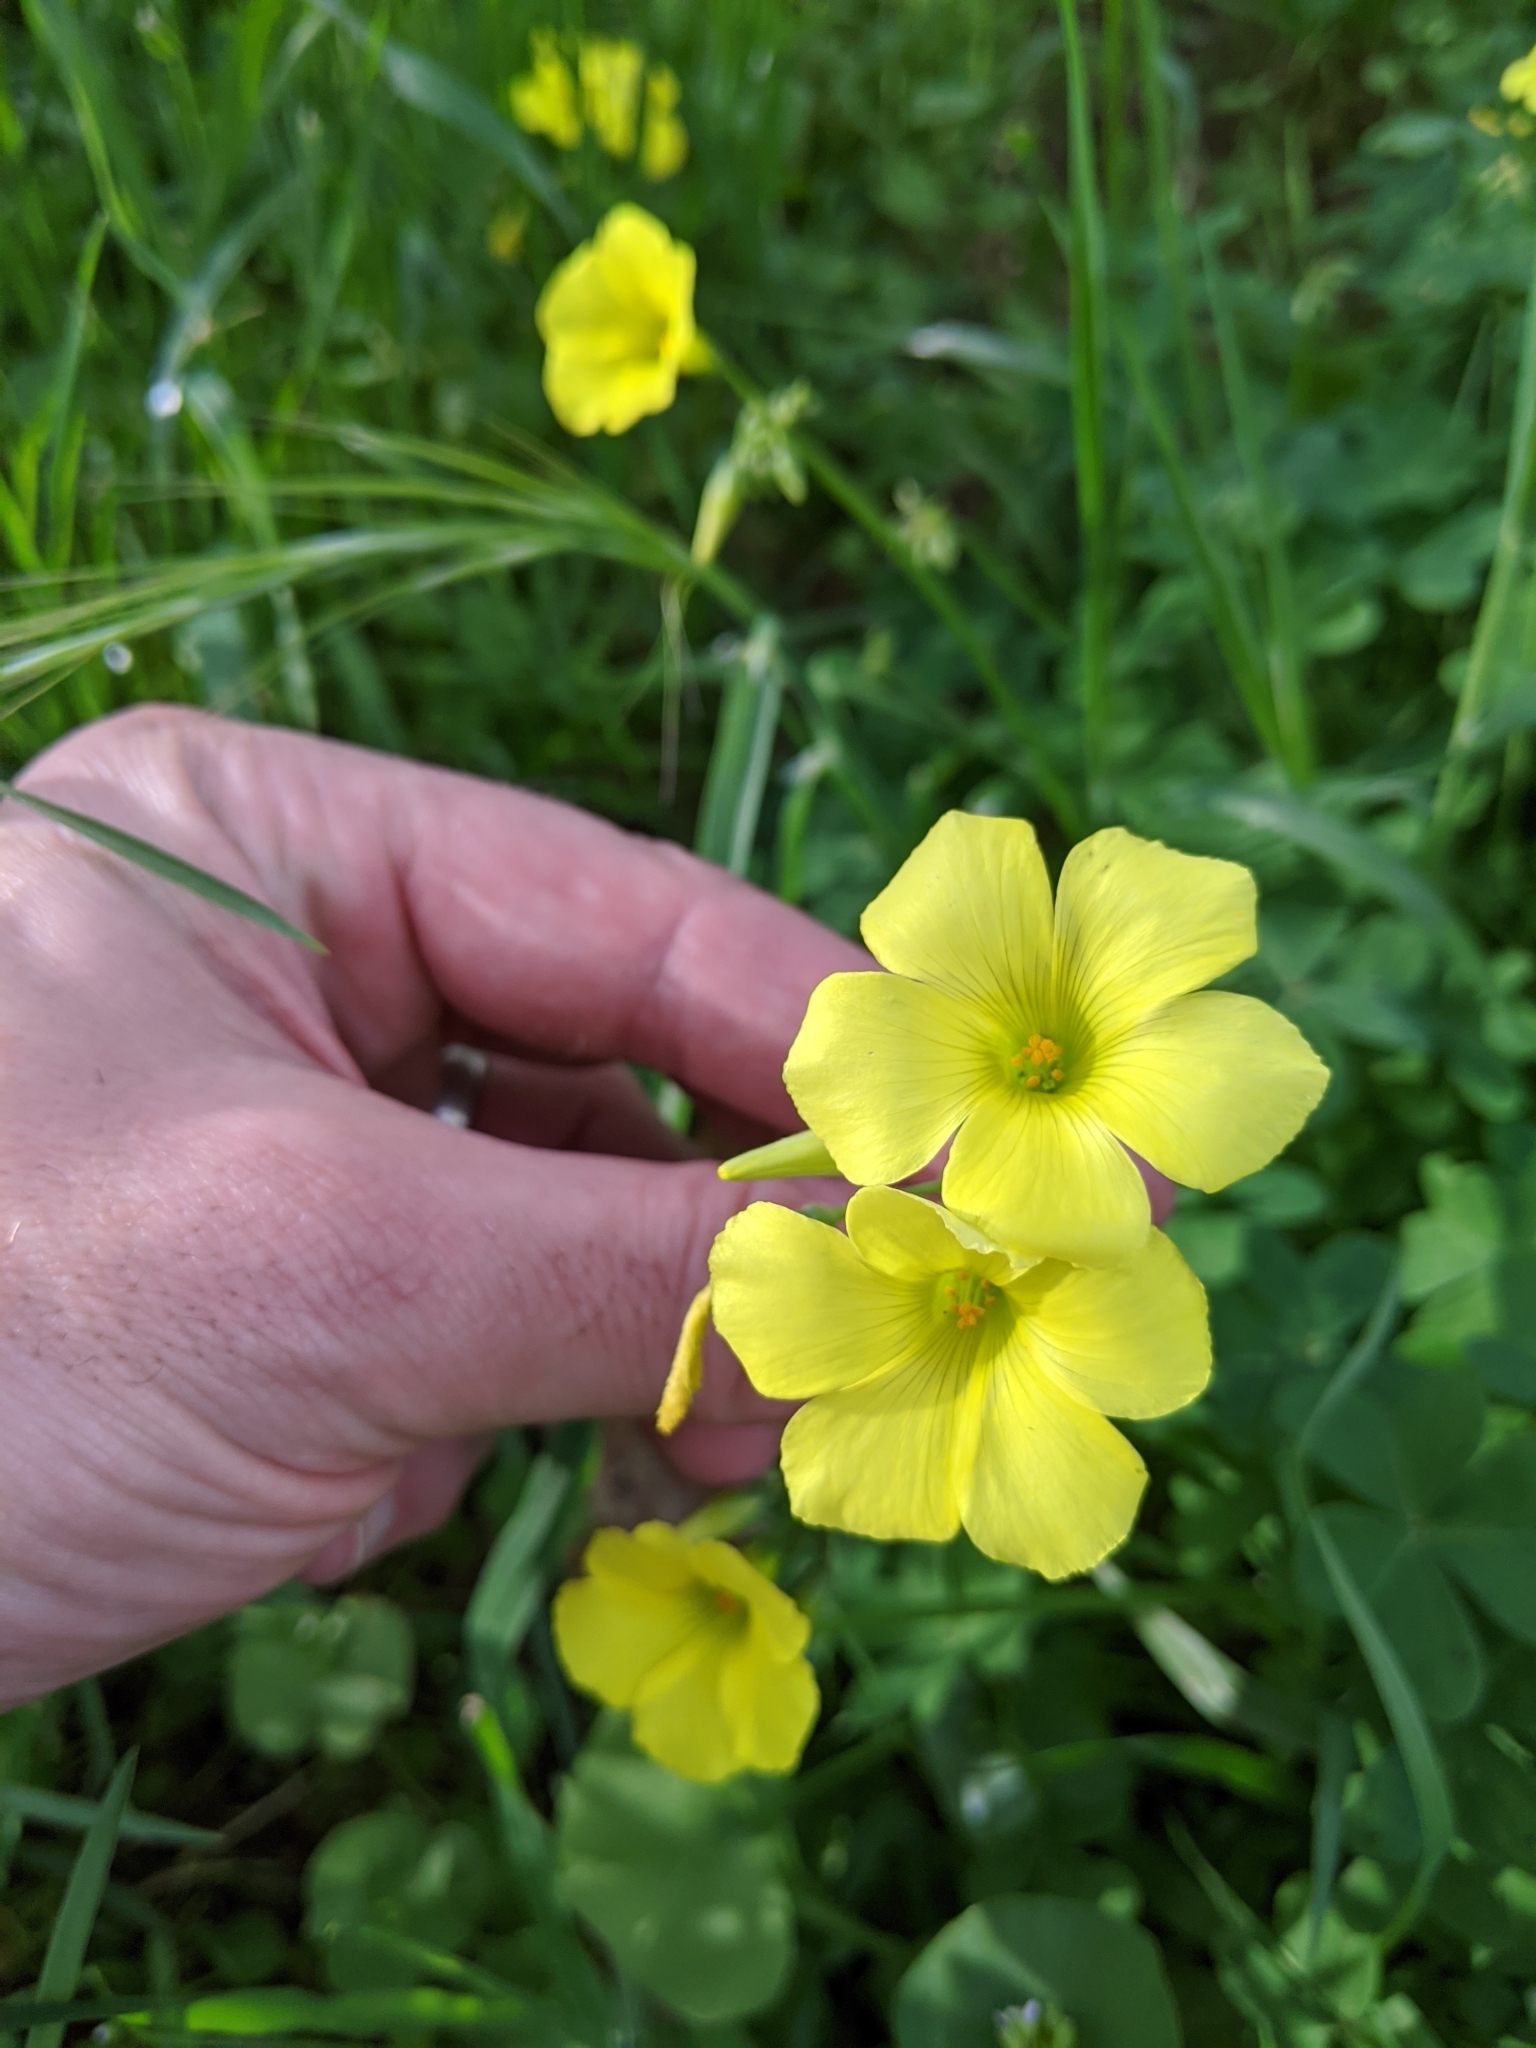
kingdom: Plantae
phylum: Tracheophyta
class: Magnoliopsida
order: Oxalidales
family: Oxalidaceae
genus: Oxalis
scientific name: Oxalis pes-caprae
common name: Bermuda-buttercup
